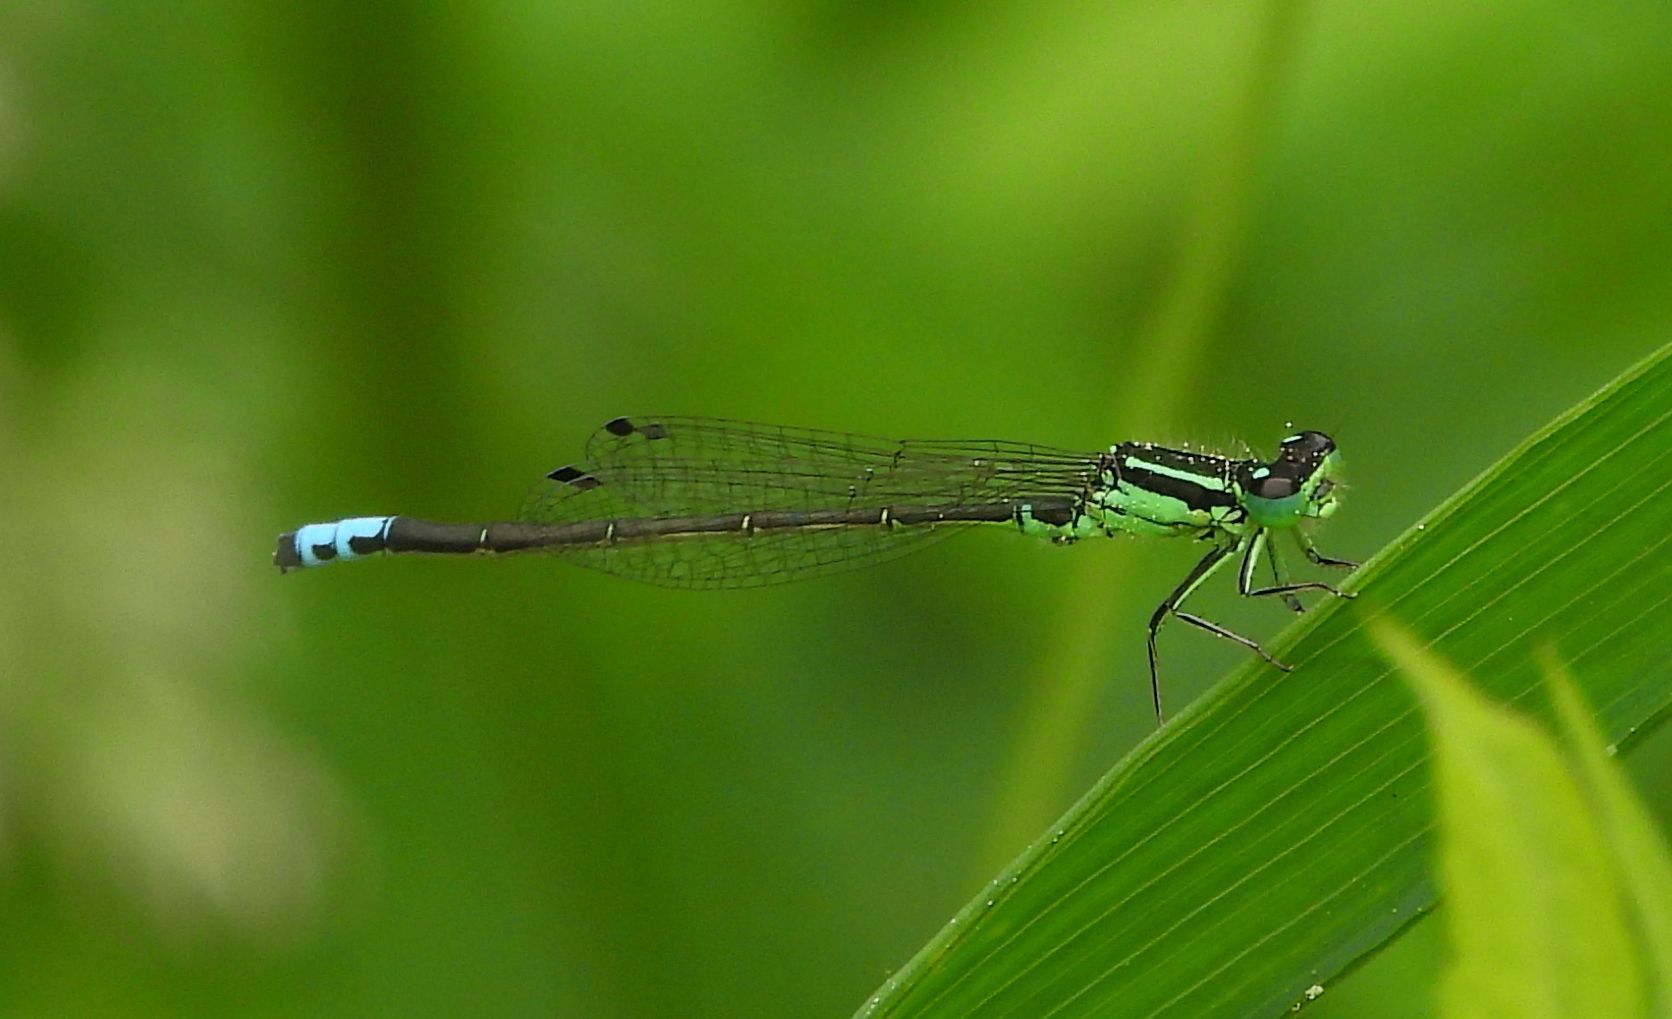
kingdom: Animalia
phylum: Arthropoda
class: Insecta
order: Odonata
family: Coenagrionidae
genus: Ischnura
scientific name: Ischnura verticalis
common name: Eastern forktail
